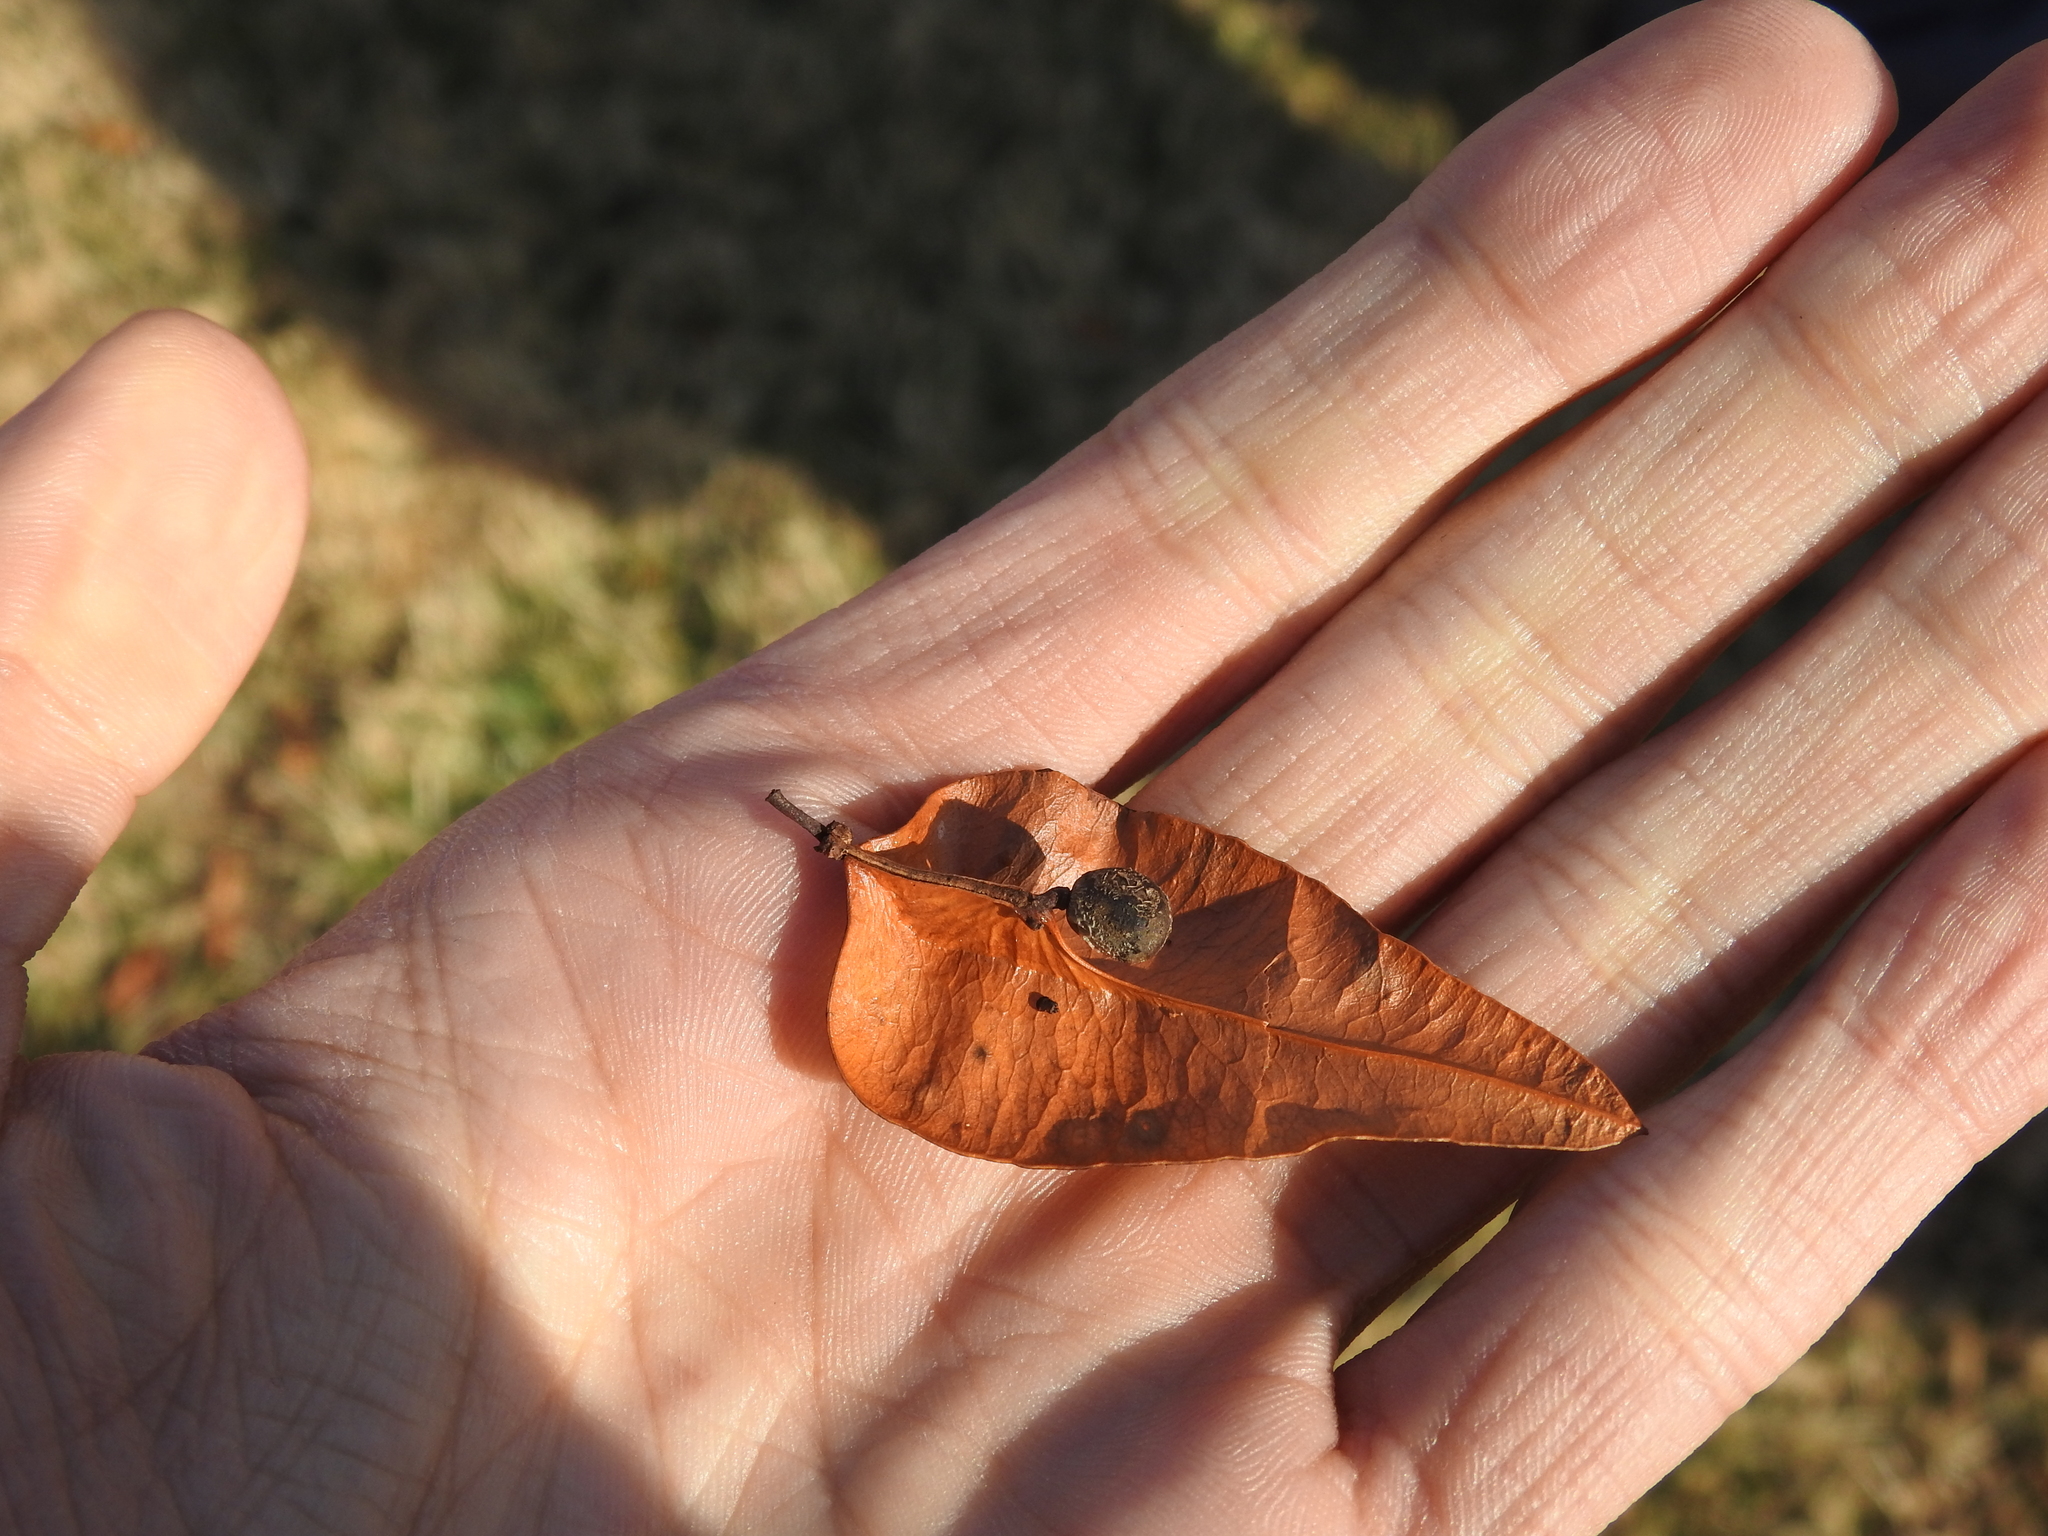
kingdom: Plantae
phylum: Tracheophyta
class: Magnoliopsida
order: Sapindales
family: Sapindaceae
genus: Koelreuteria
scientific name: Koelreuteria paniculata
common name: Pride-of-india
